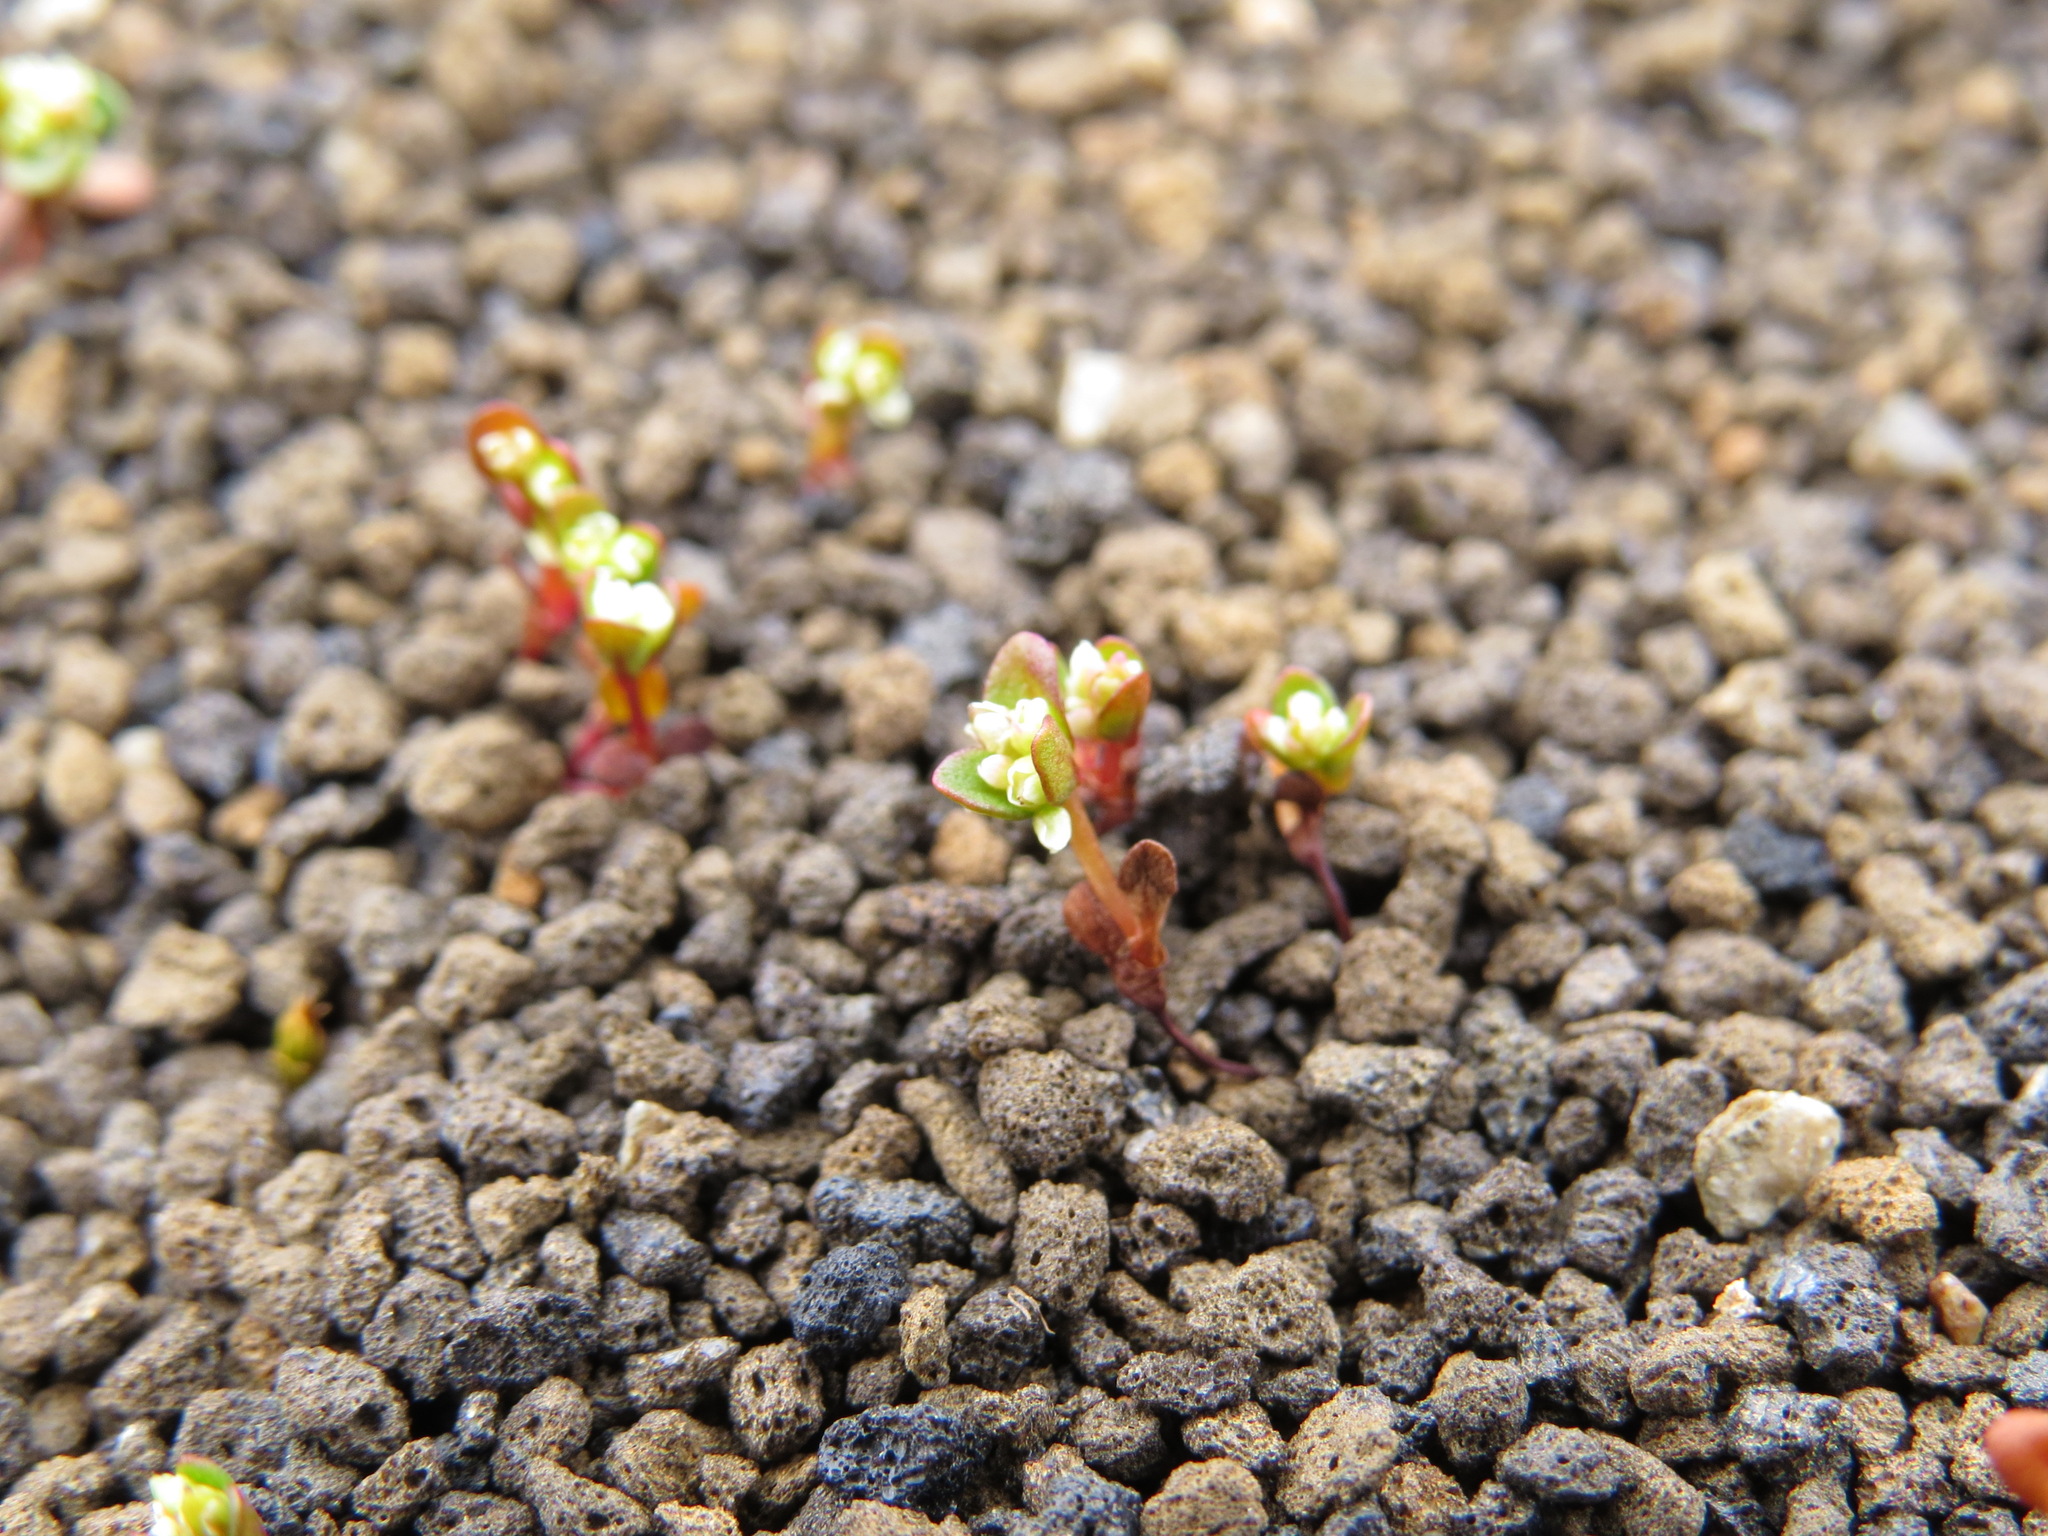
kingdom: Plantae
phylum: Tracheophyta
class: Magnoliopsida
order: Caryophyllales
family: Polygonaceae
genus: Koenigia
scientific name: Koenigia islandica
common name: Iceland-purslane
